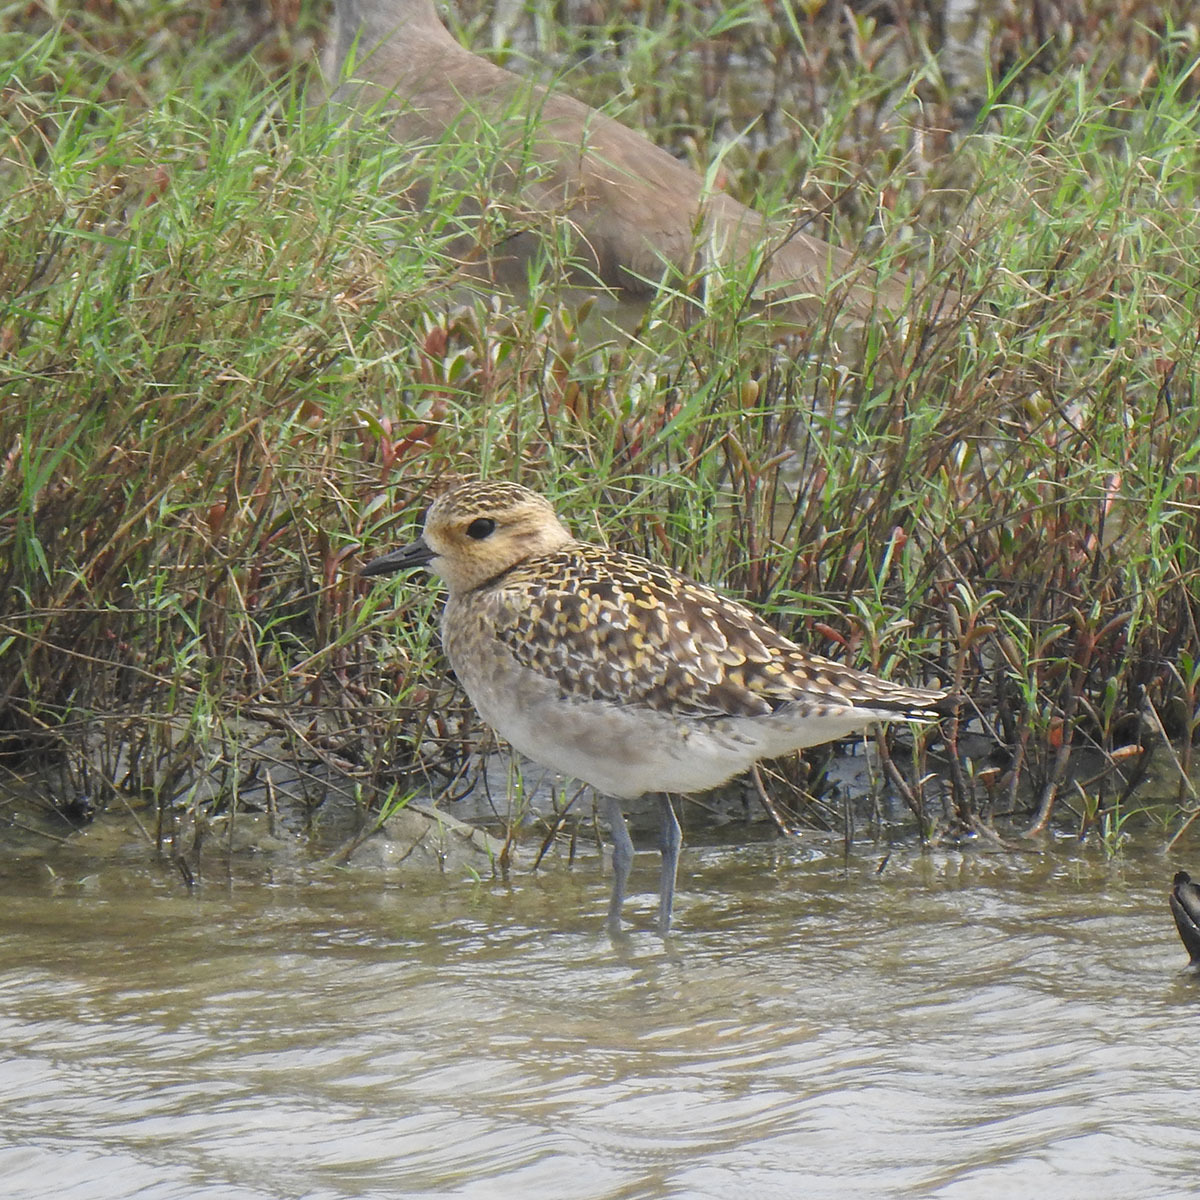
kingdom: Animalia
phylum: Chordata
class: Aves
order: Charadriiformes
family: Charadriidae
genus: Pluvialis
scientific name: Pluvialis fulva
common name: Pacific golden plover
